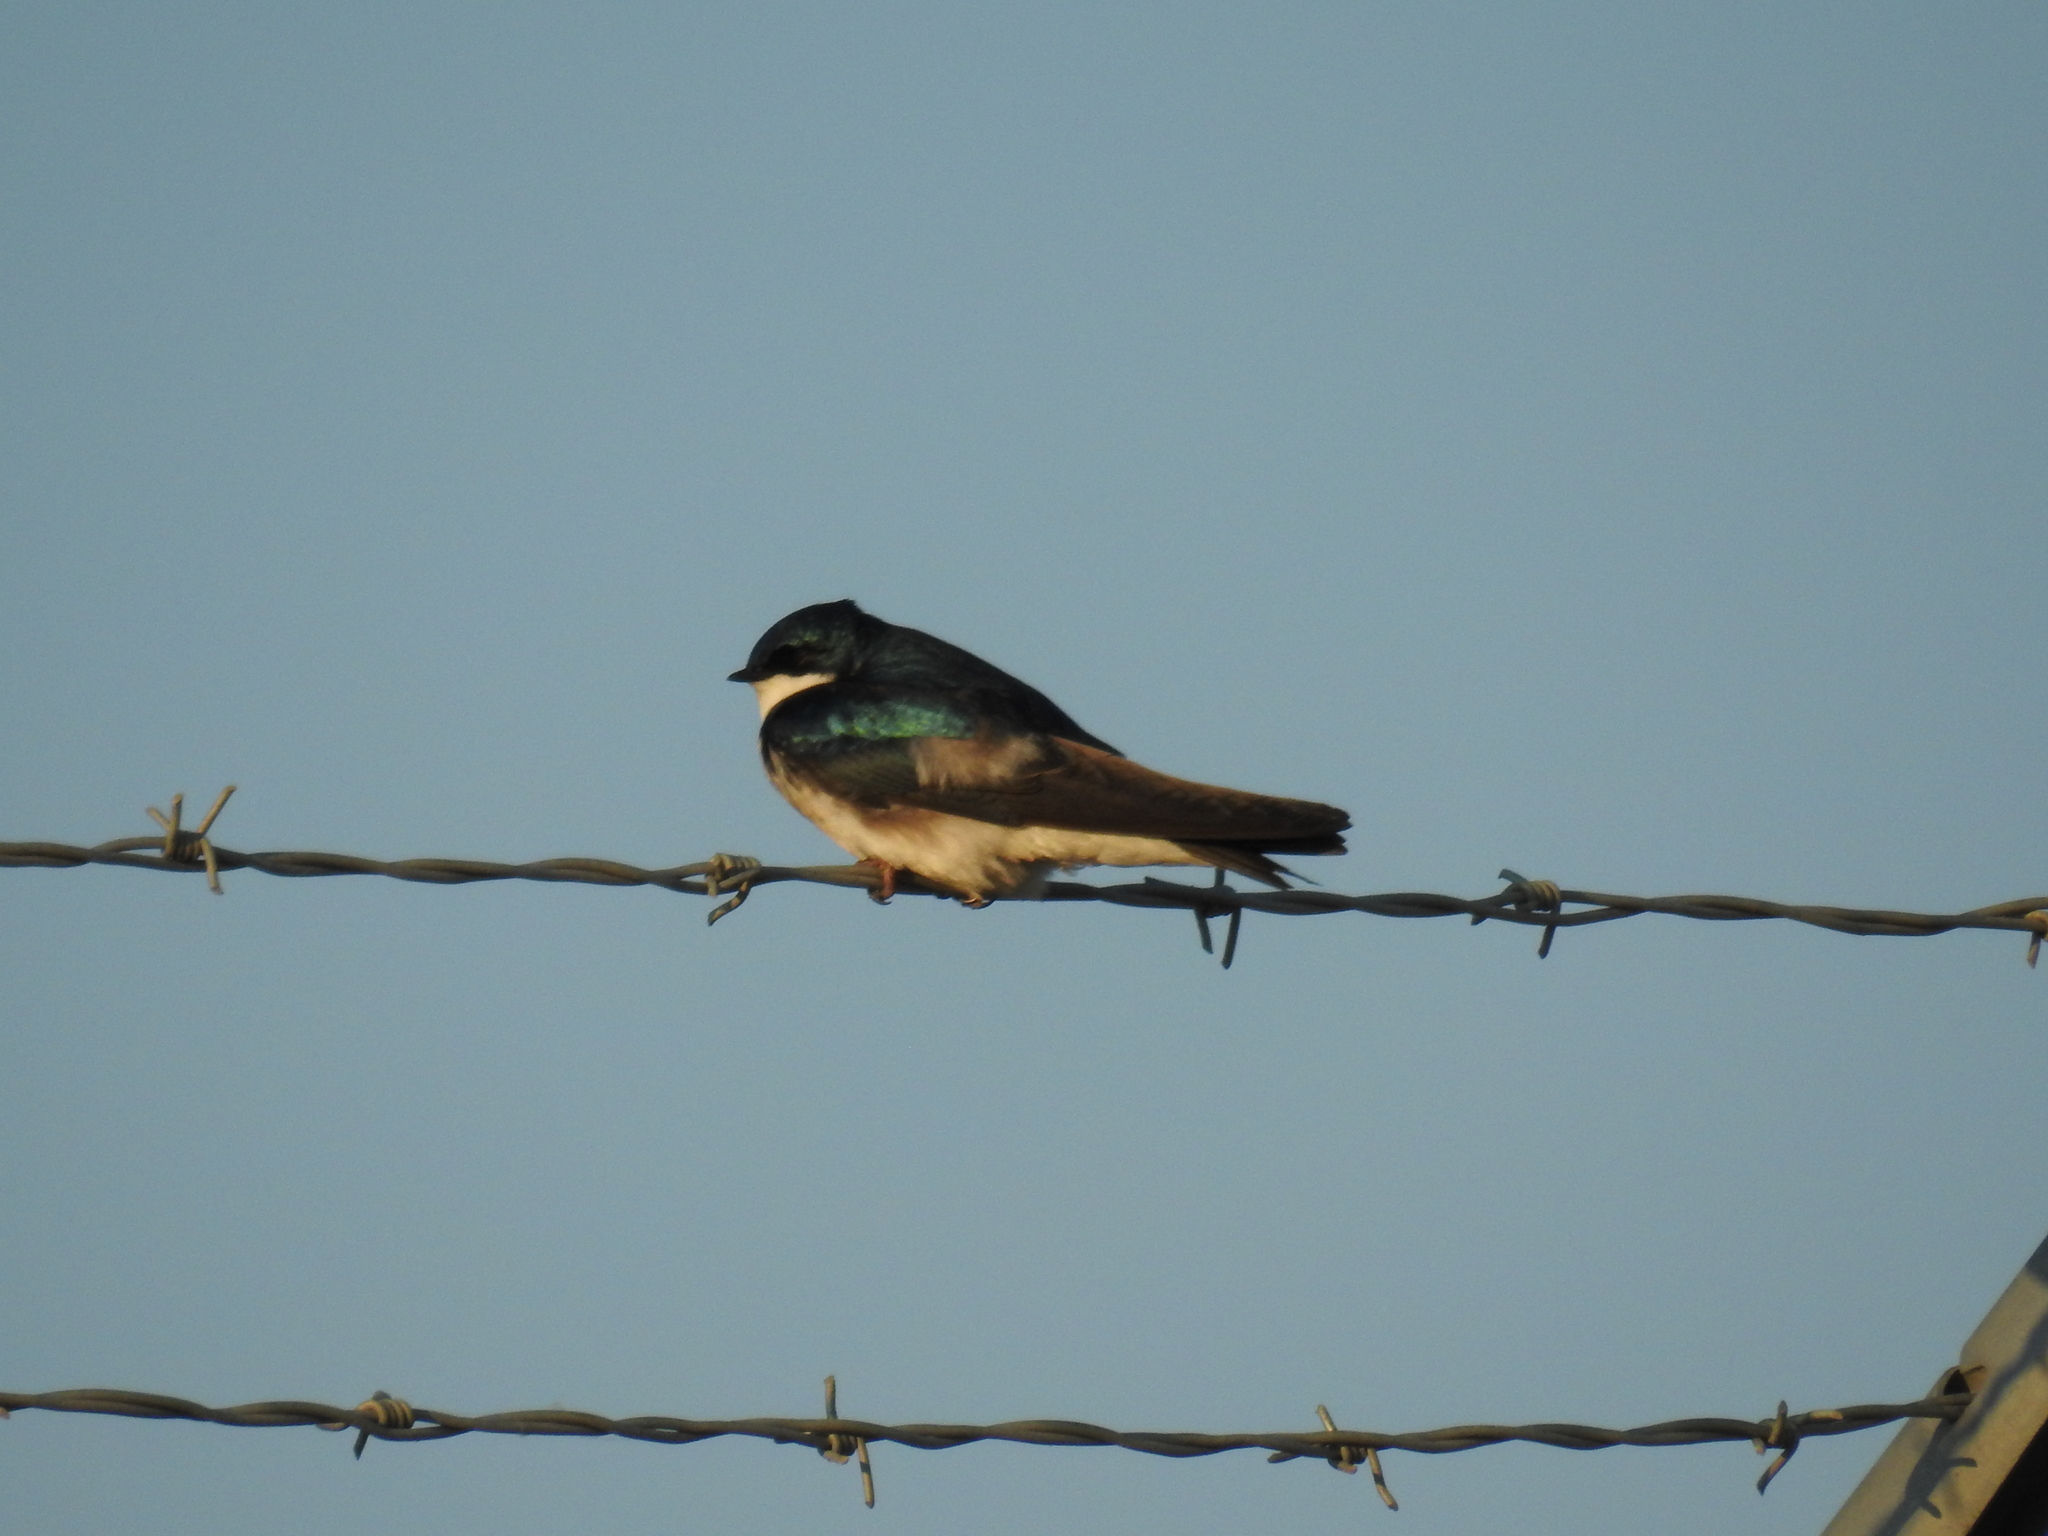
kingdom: Animalia
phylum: Chordata
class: Aves
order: Passeriformes
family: Hirundinidae
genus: Tachycineta
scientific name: Tachycineta bicolor
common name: Tree swallow
